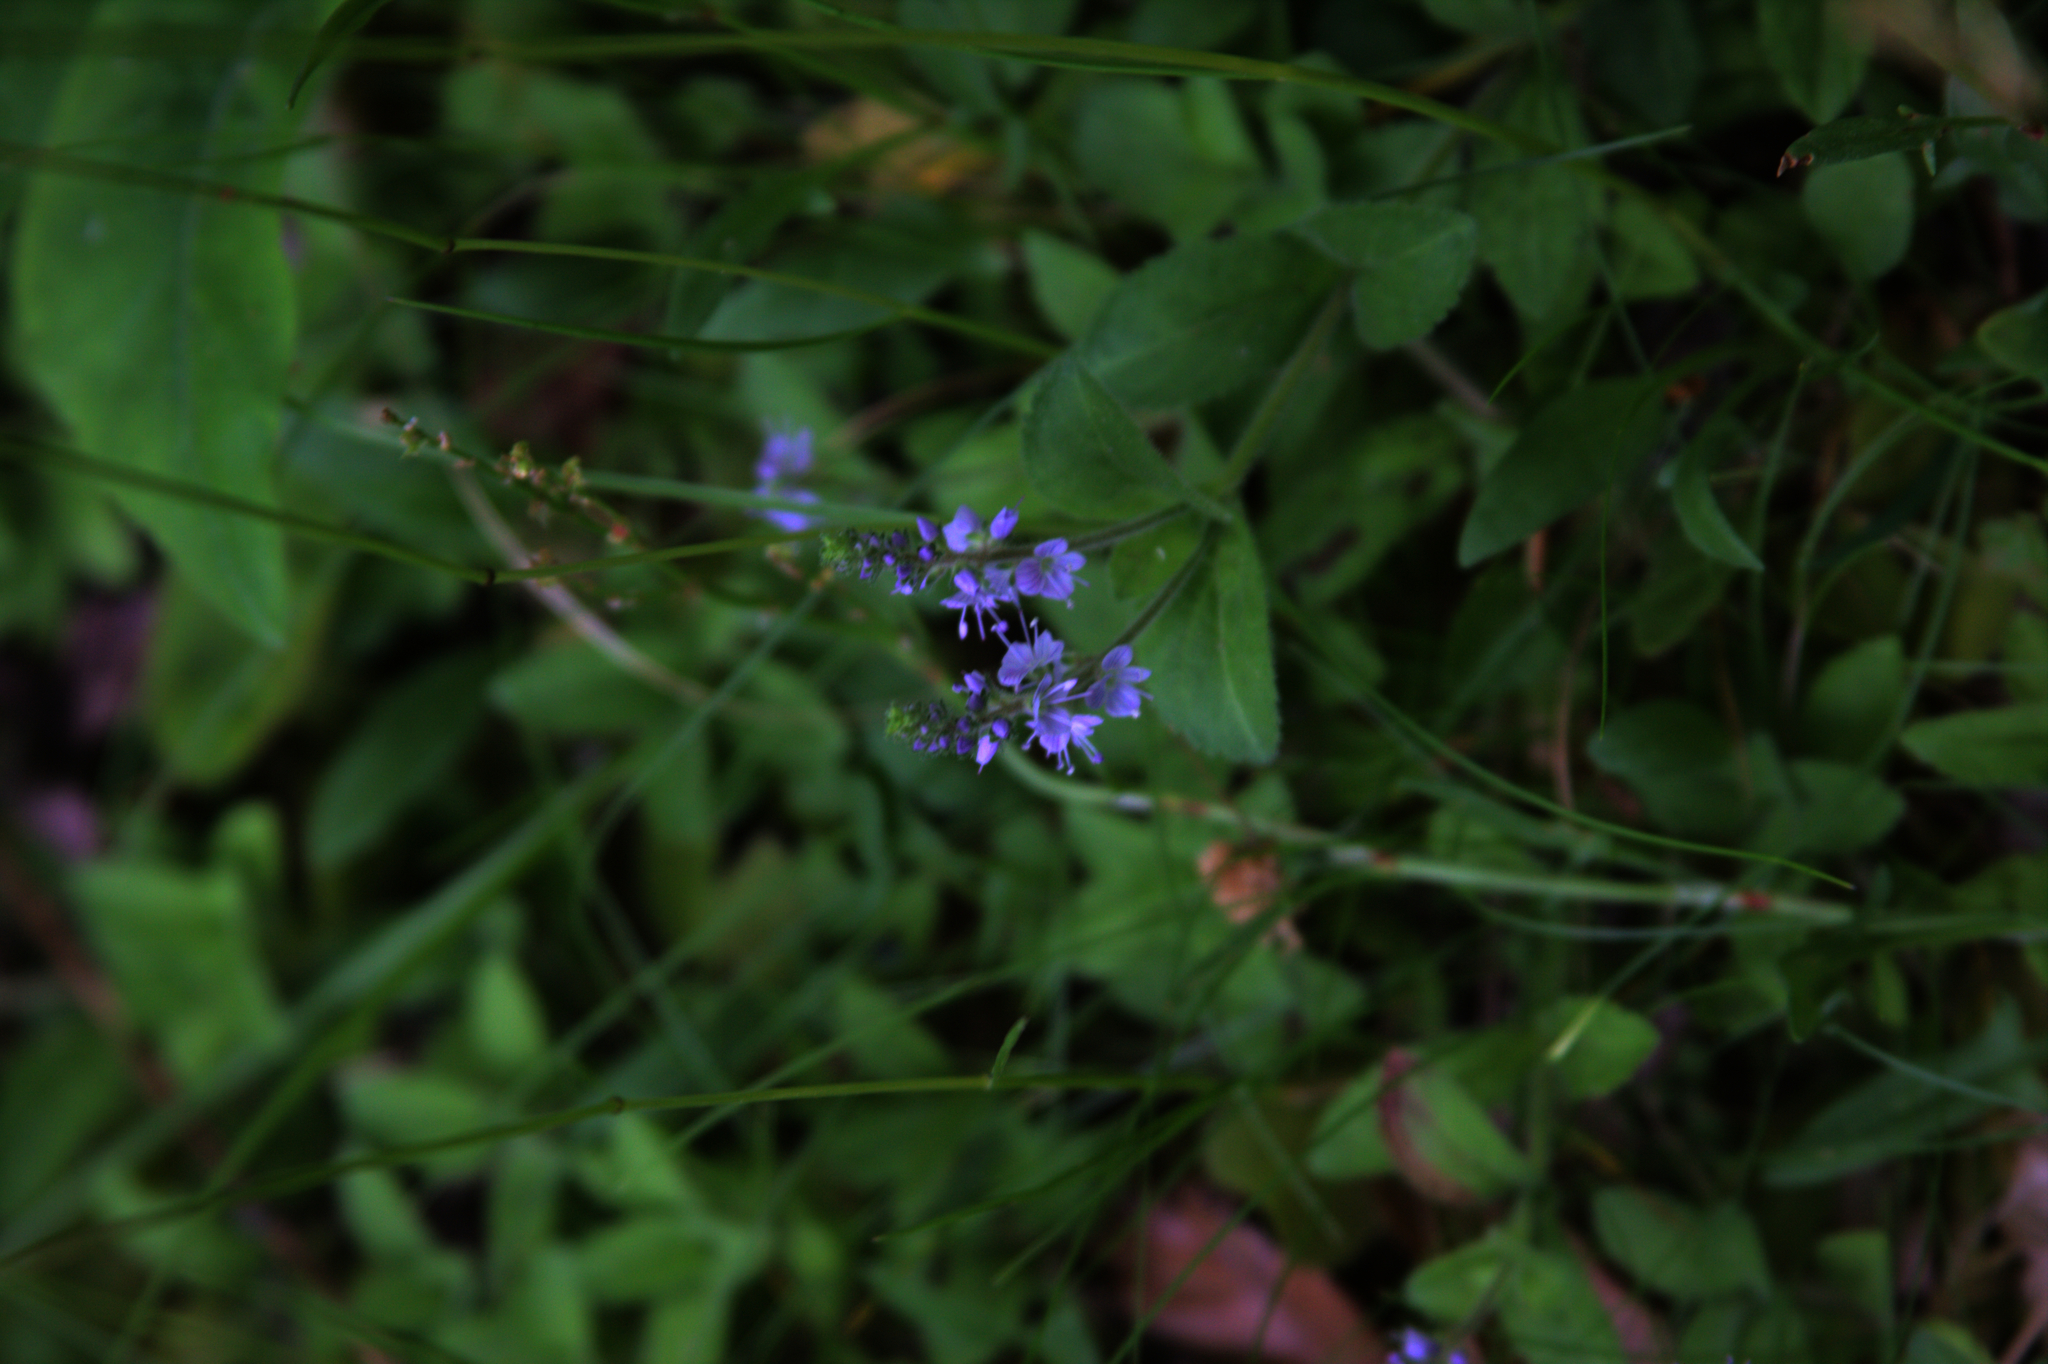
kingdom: Plantae
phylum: Tracheophyta
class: Magnoliopsida
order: Lamiales
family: Plantaginaceae
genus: Veronica
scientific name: Veronica officinalis
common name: Common speedwell
